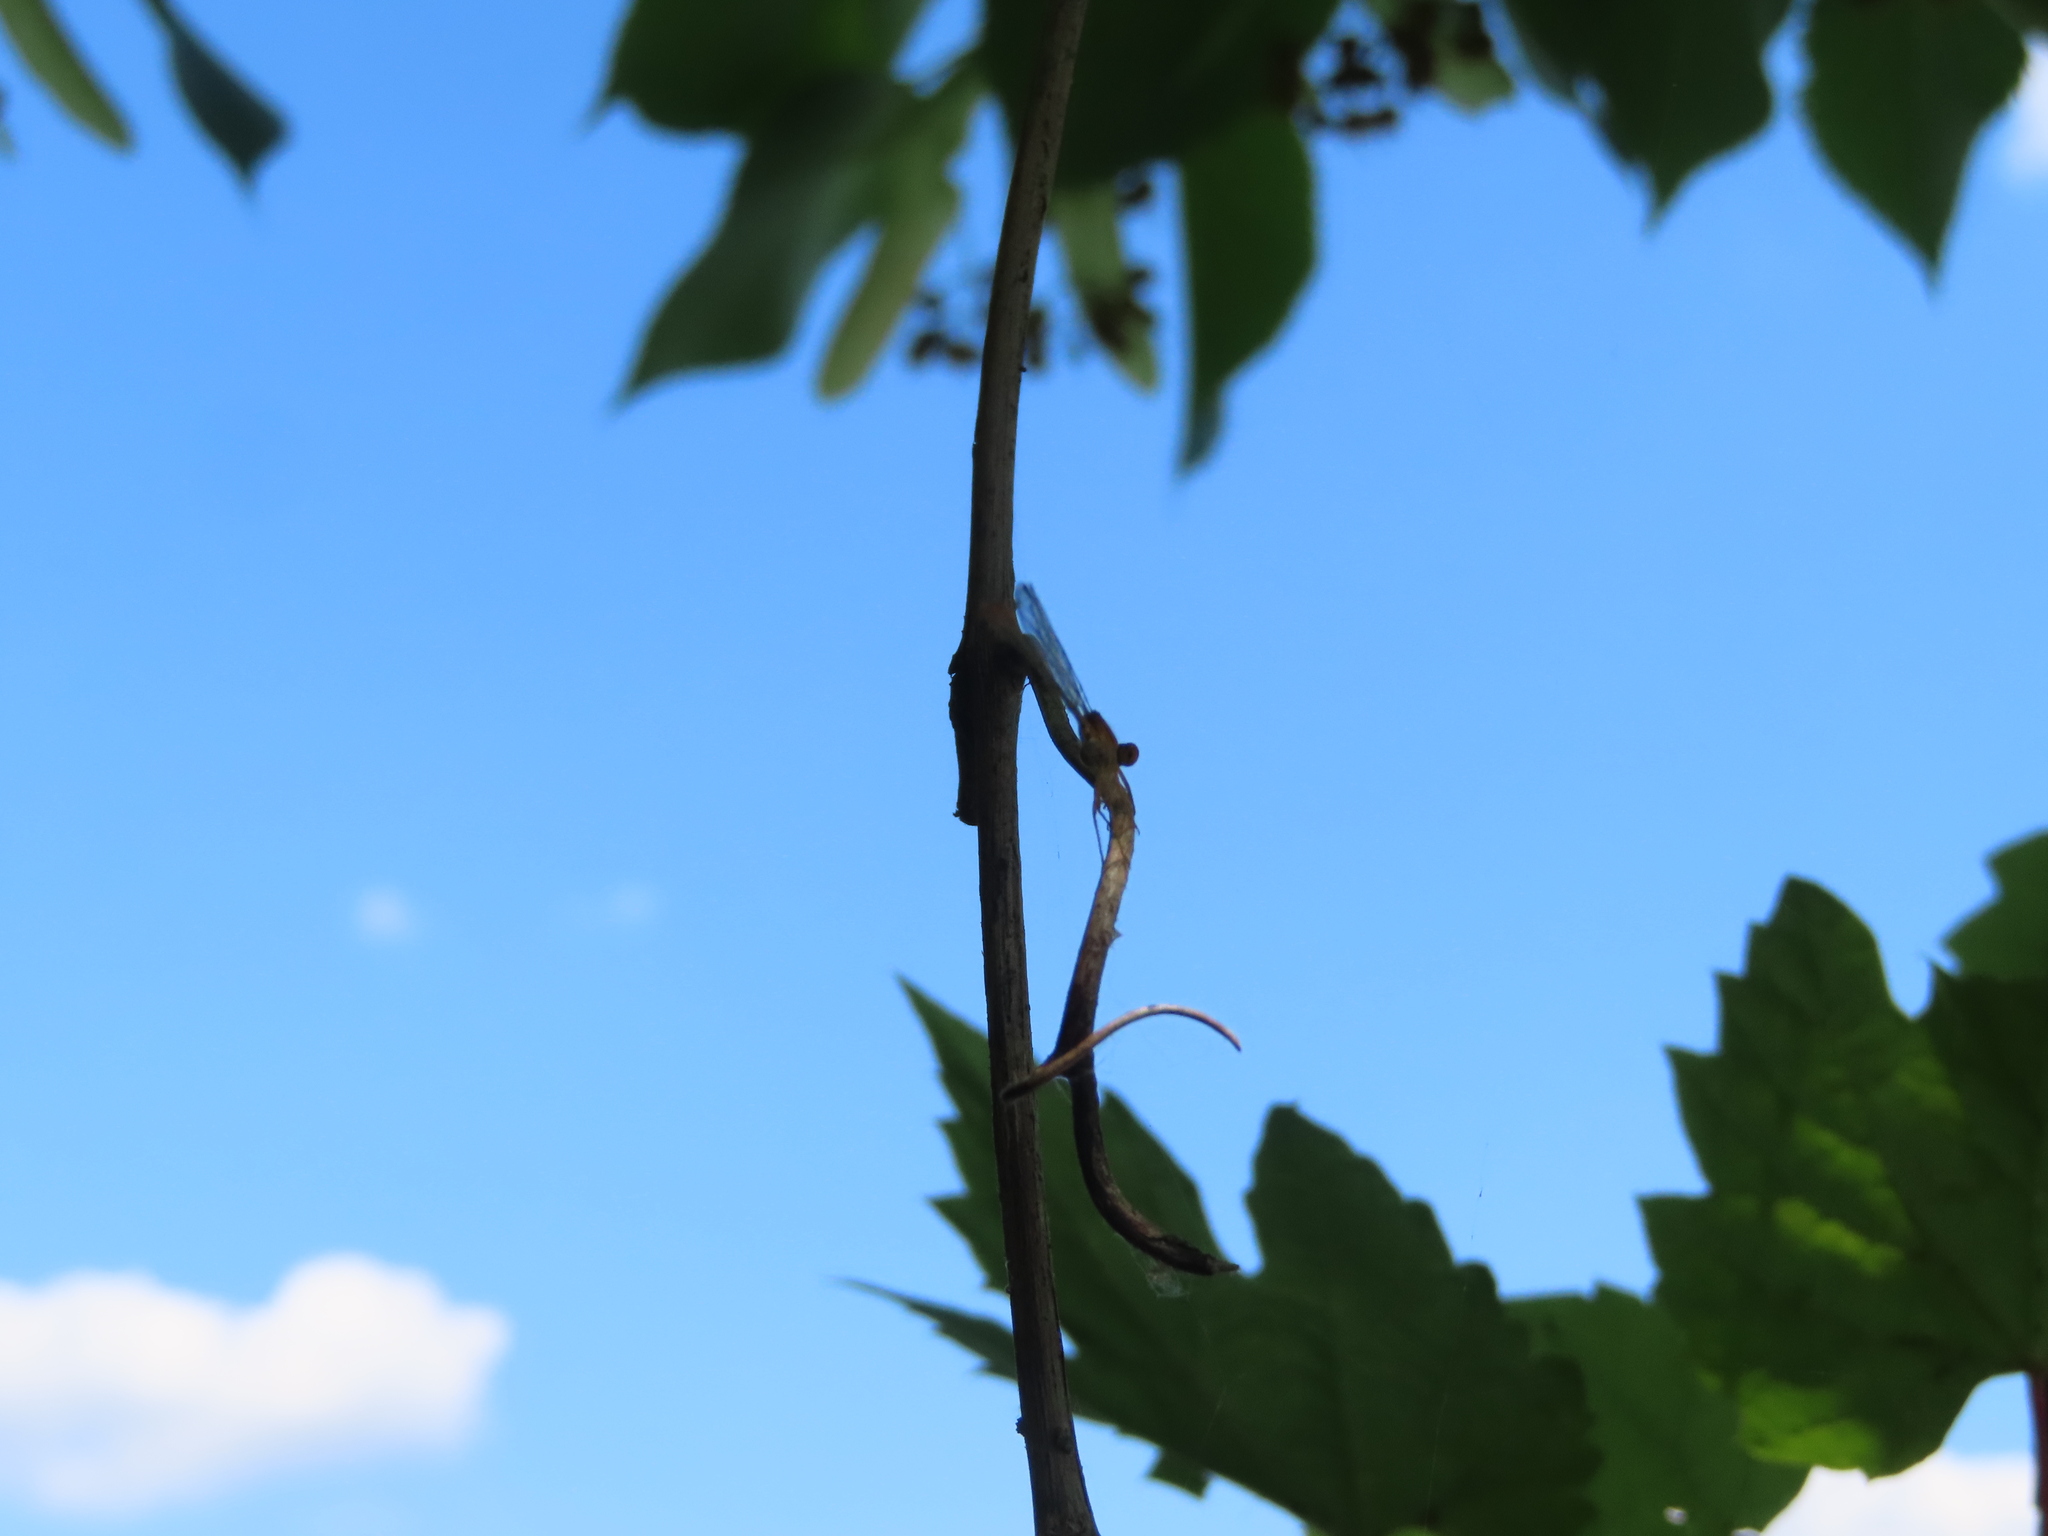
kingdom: Animalia
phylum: Arthropoda
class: Insecta
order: Odonata
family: Coenagrionidae
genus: Enallagma
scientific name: Enallagma signatum
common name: Orange bluet
